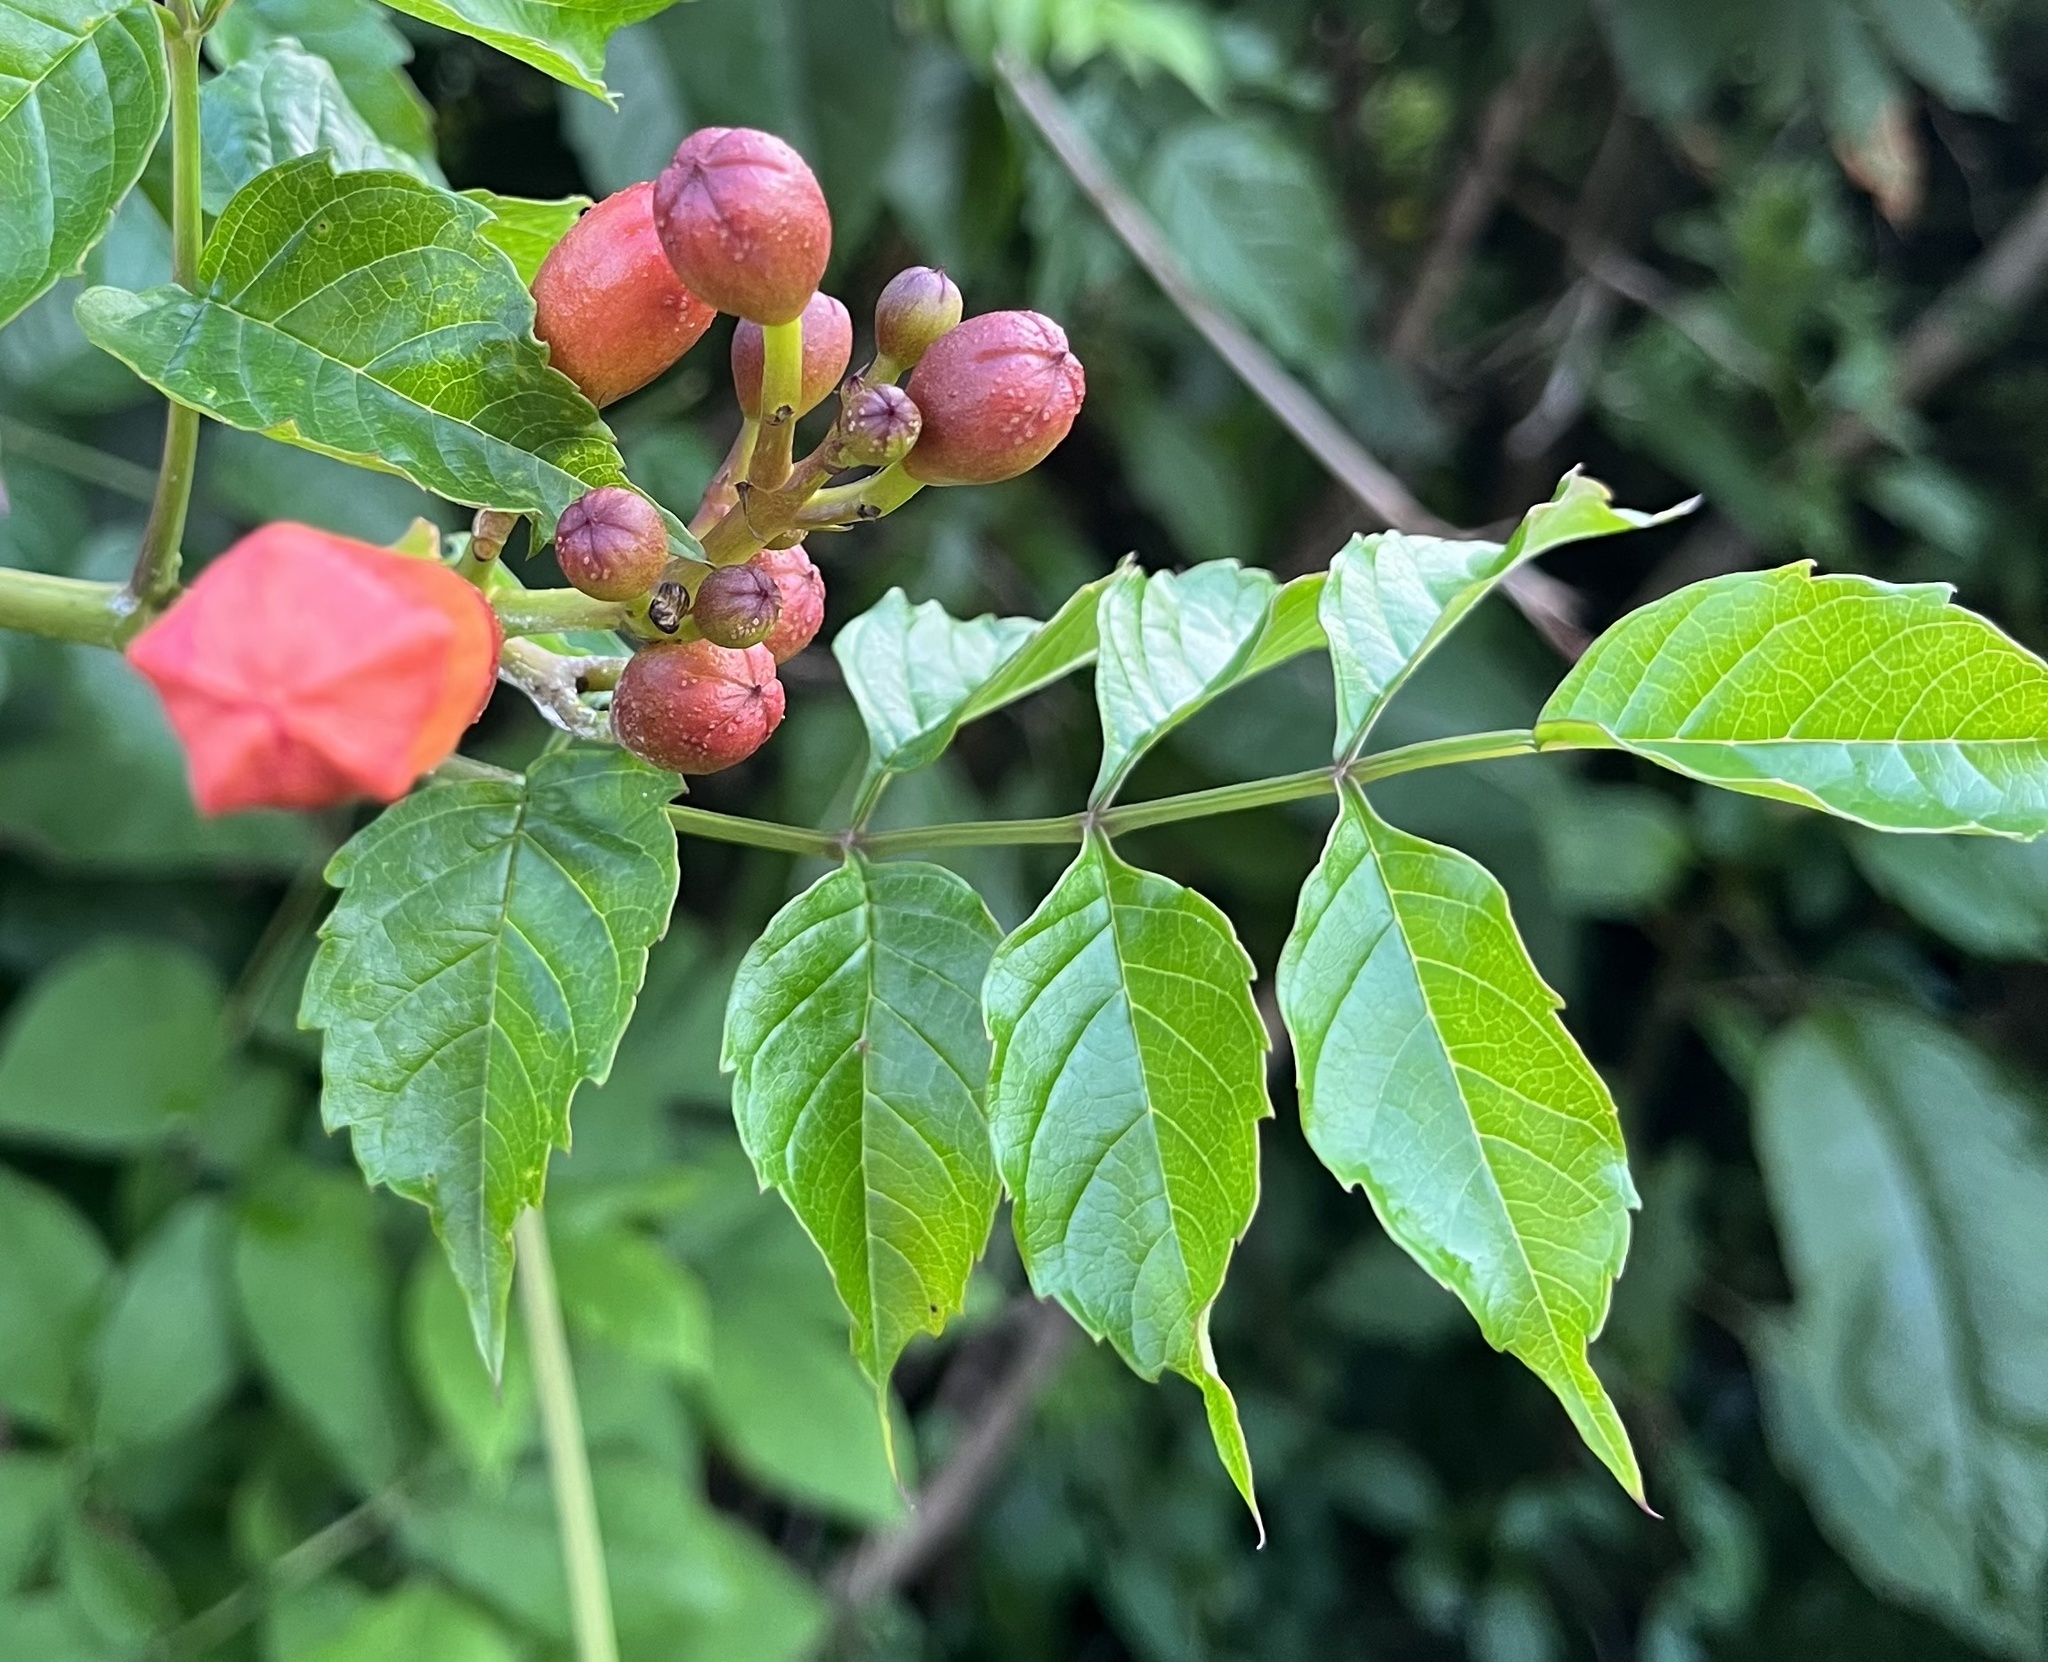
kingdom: Plantae
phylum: Tracheophyta
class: Magnoliopsida
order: Lamiales
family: Bignoniaceae
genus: Campsis
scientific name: Campsis radicans
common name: Trumpet-creeper
